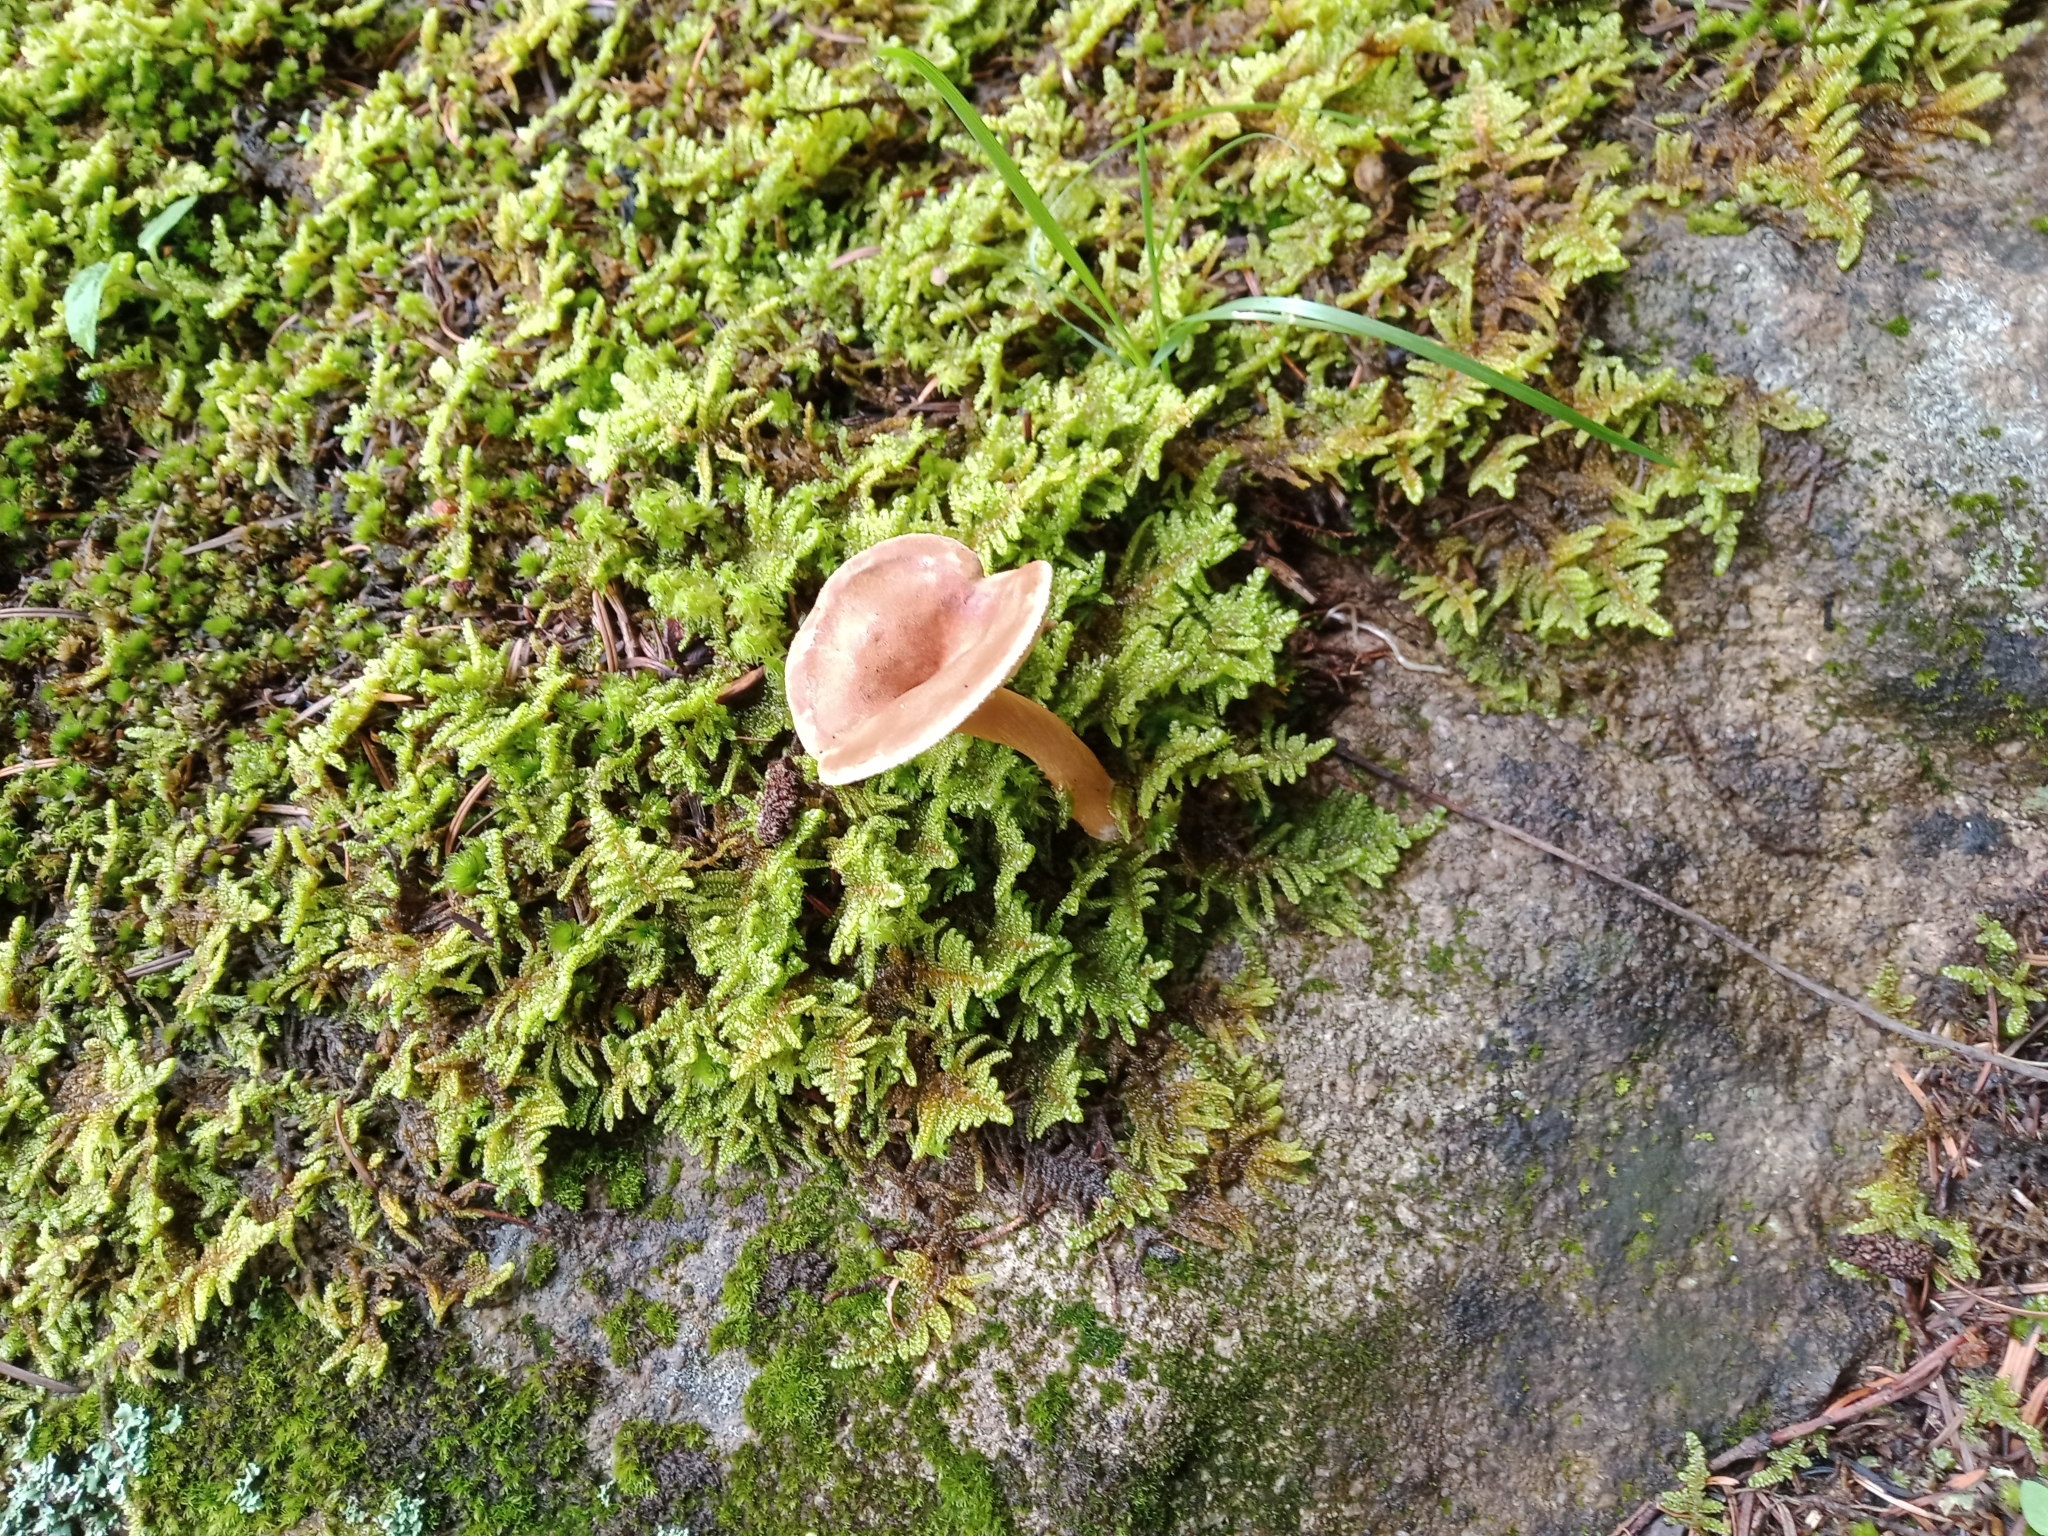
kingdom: Fungi
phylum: Basidiomycota
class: Agaricomycetes
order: Agaricales
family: Tricholomataceae
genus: Paralepista
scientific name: Paralepista flaccida
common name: Tawny funnel cap
